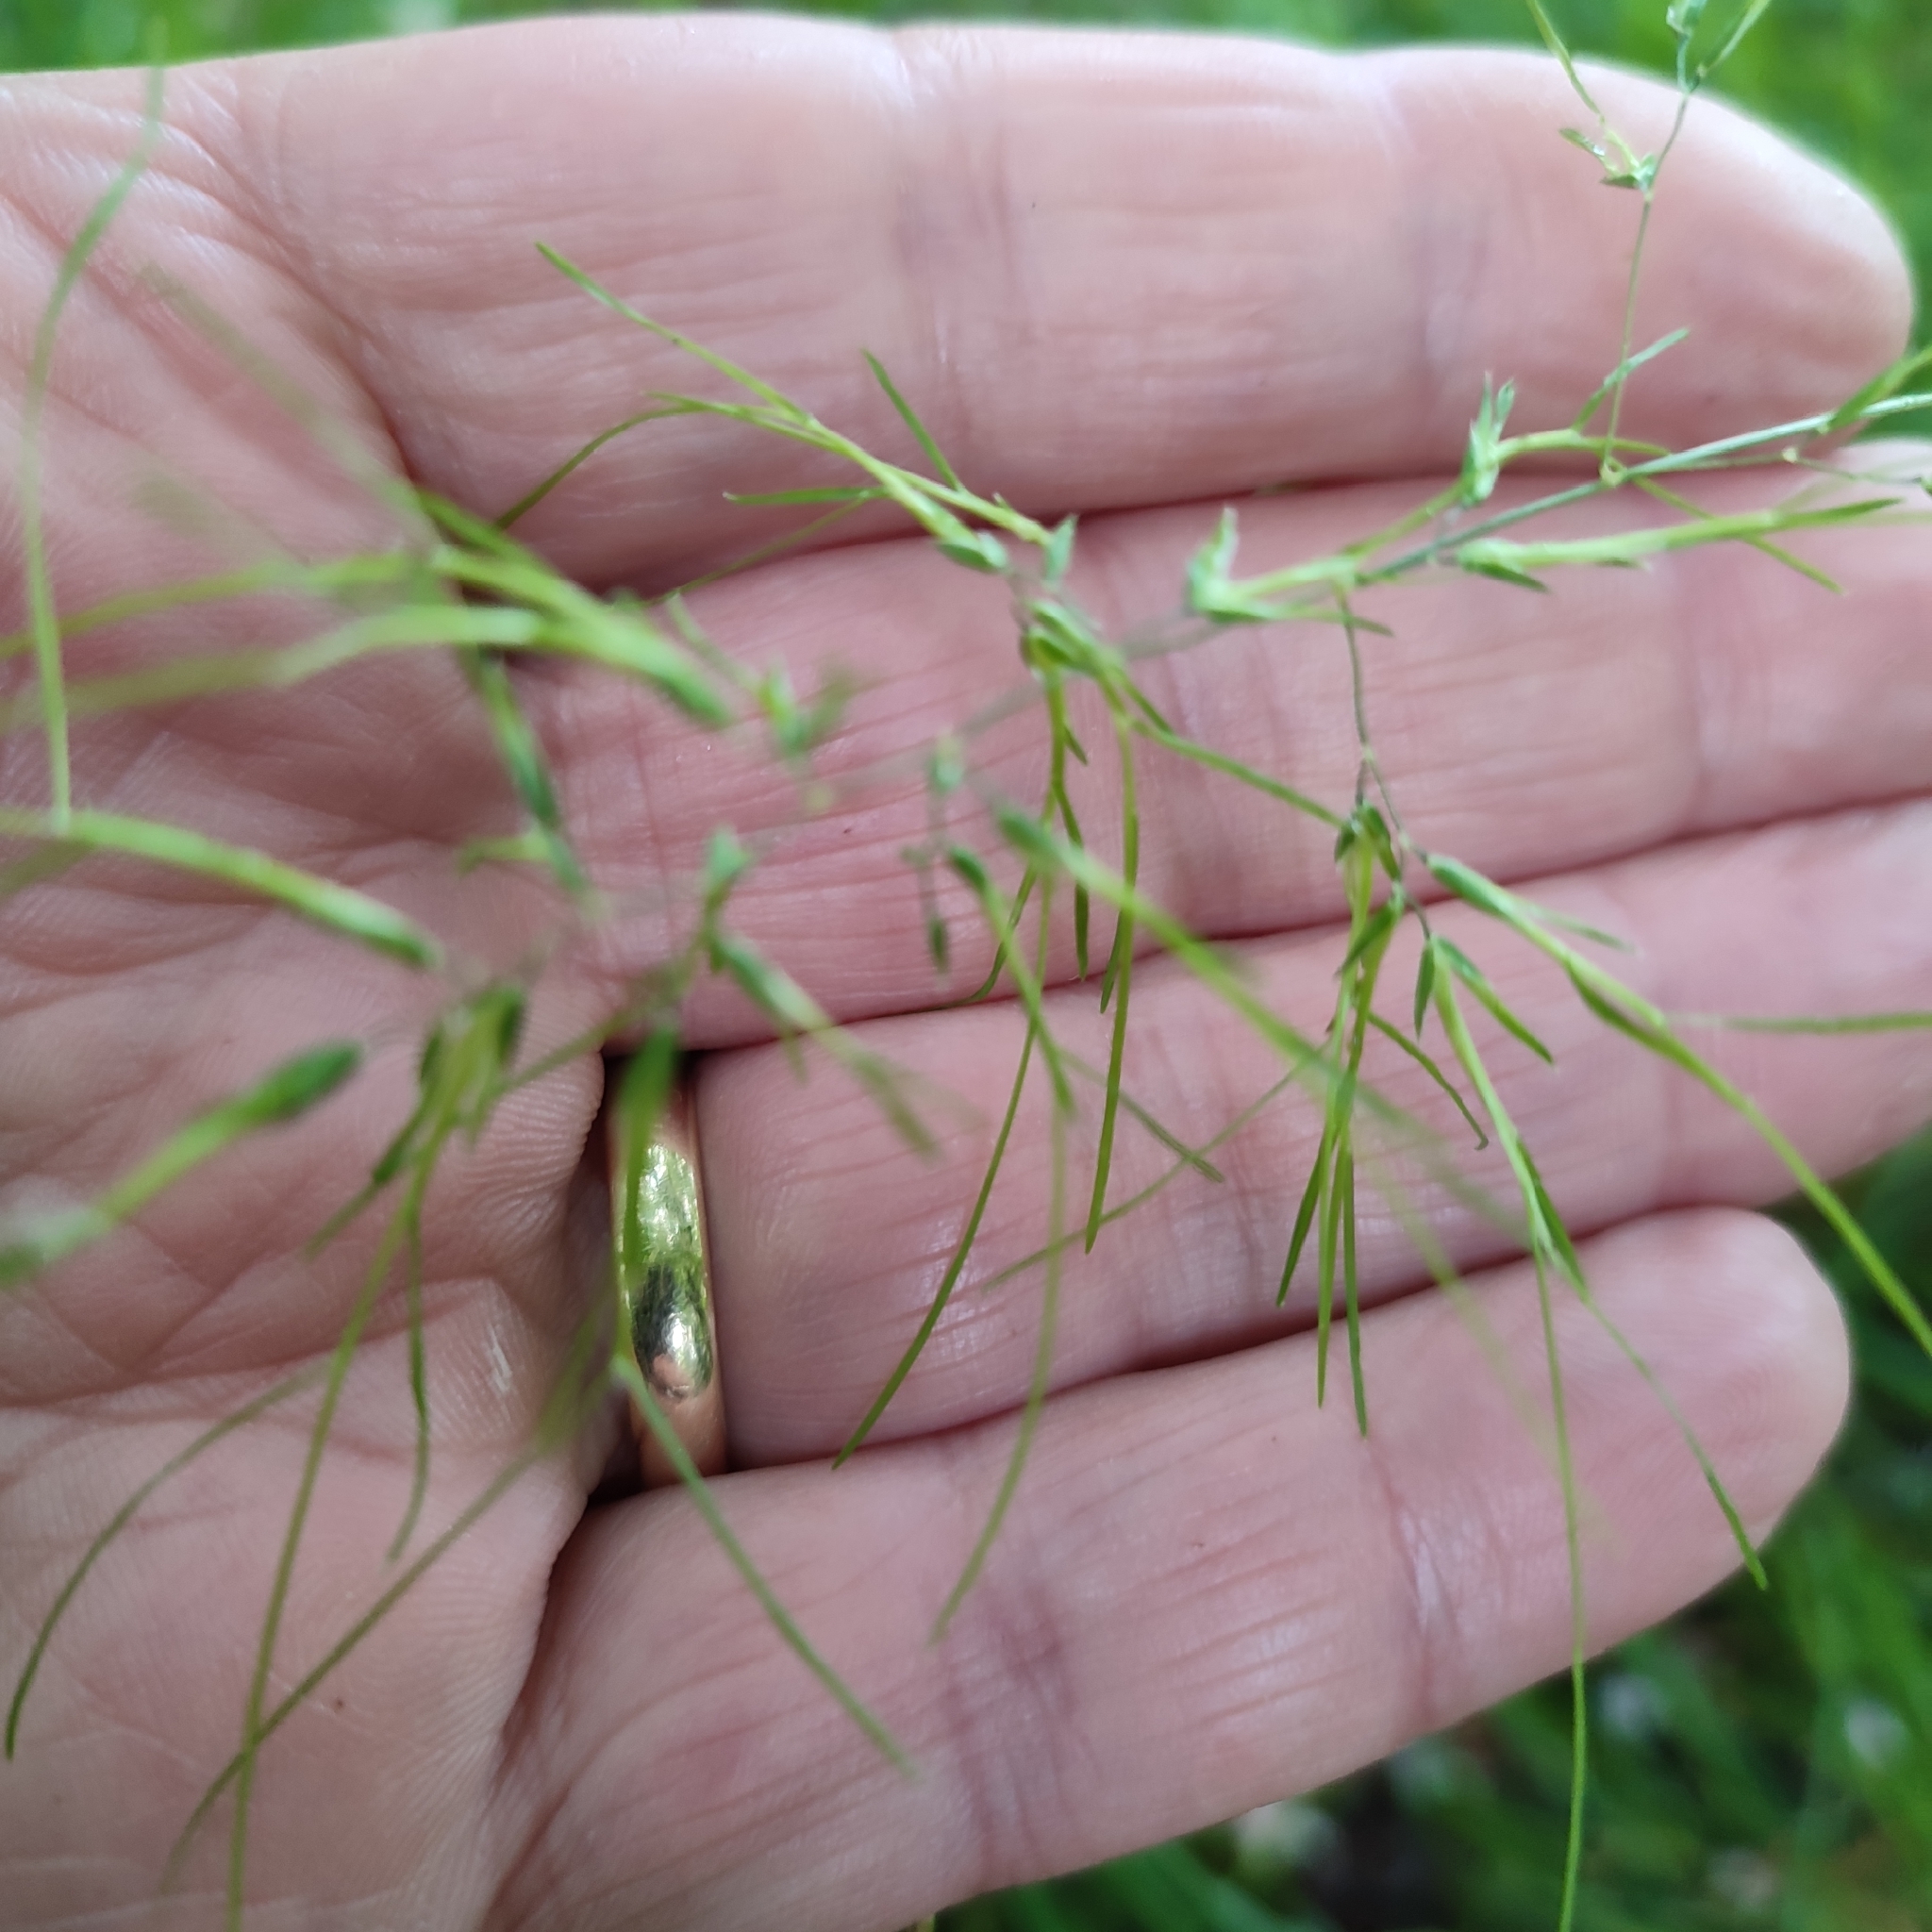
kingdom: Plantae
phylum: Tracheophyta
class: Liliopsida
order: Poales
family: Poaceae
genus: Poa
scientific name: Poa bulbosa
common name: Bulbous bluegrass
